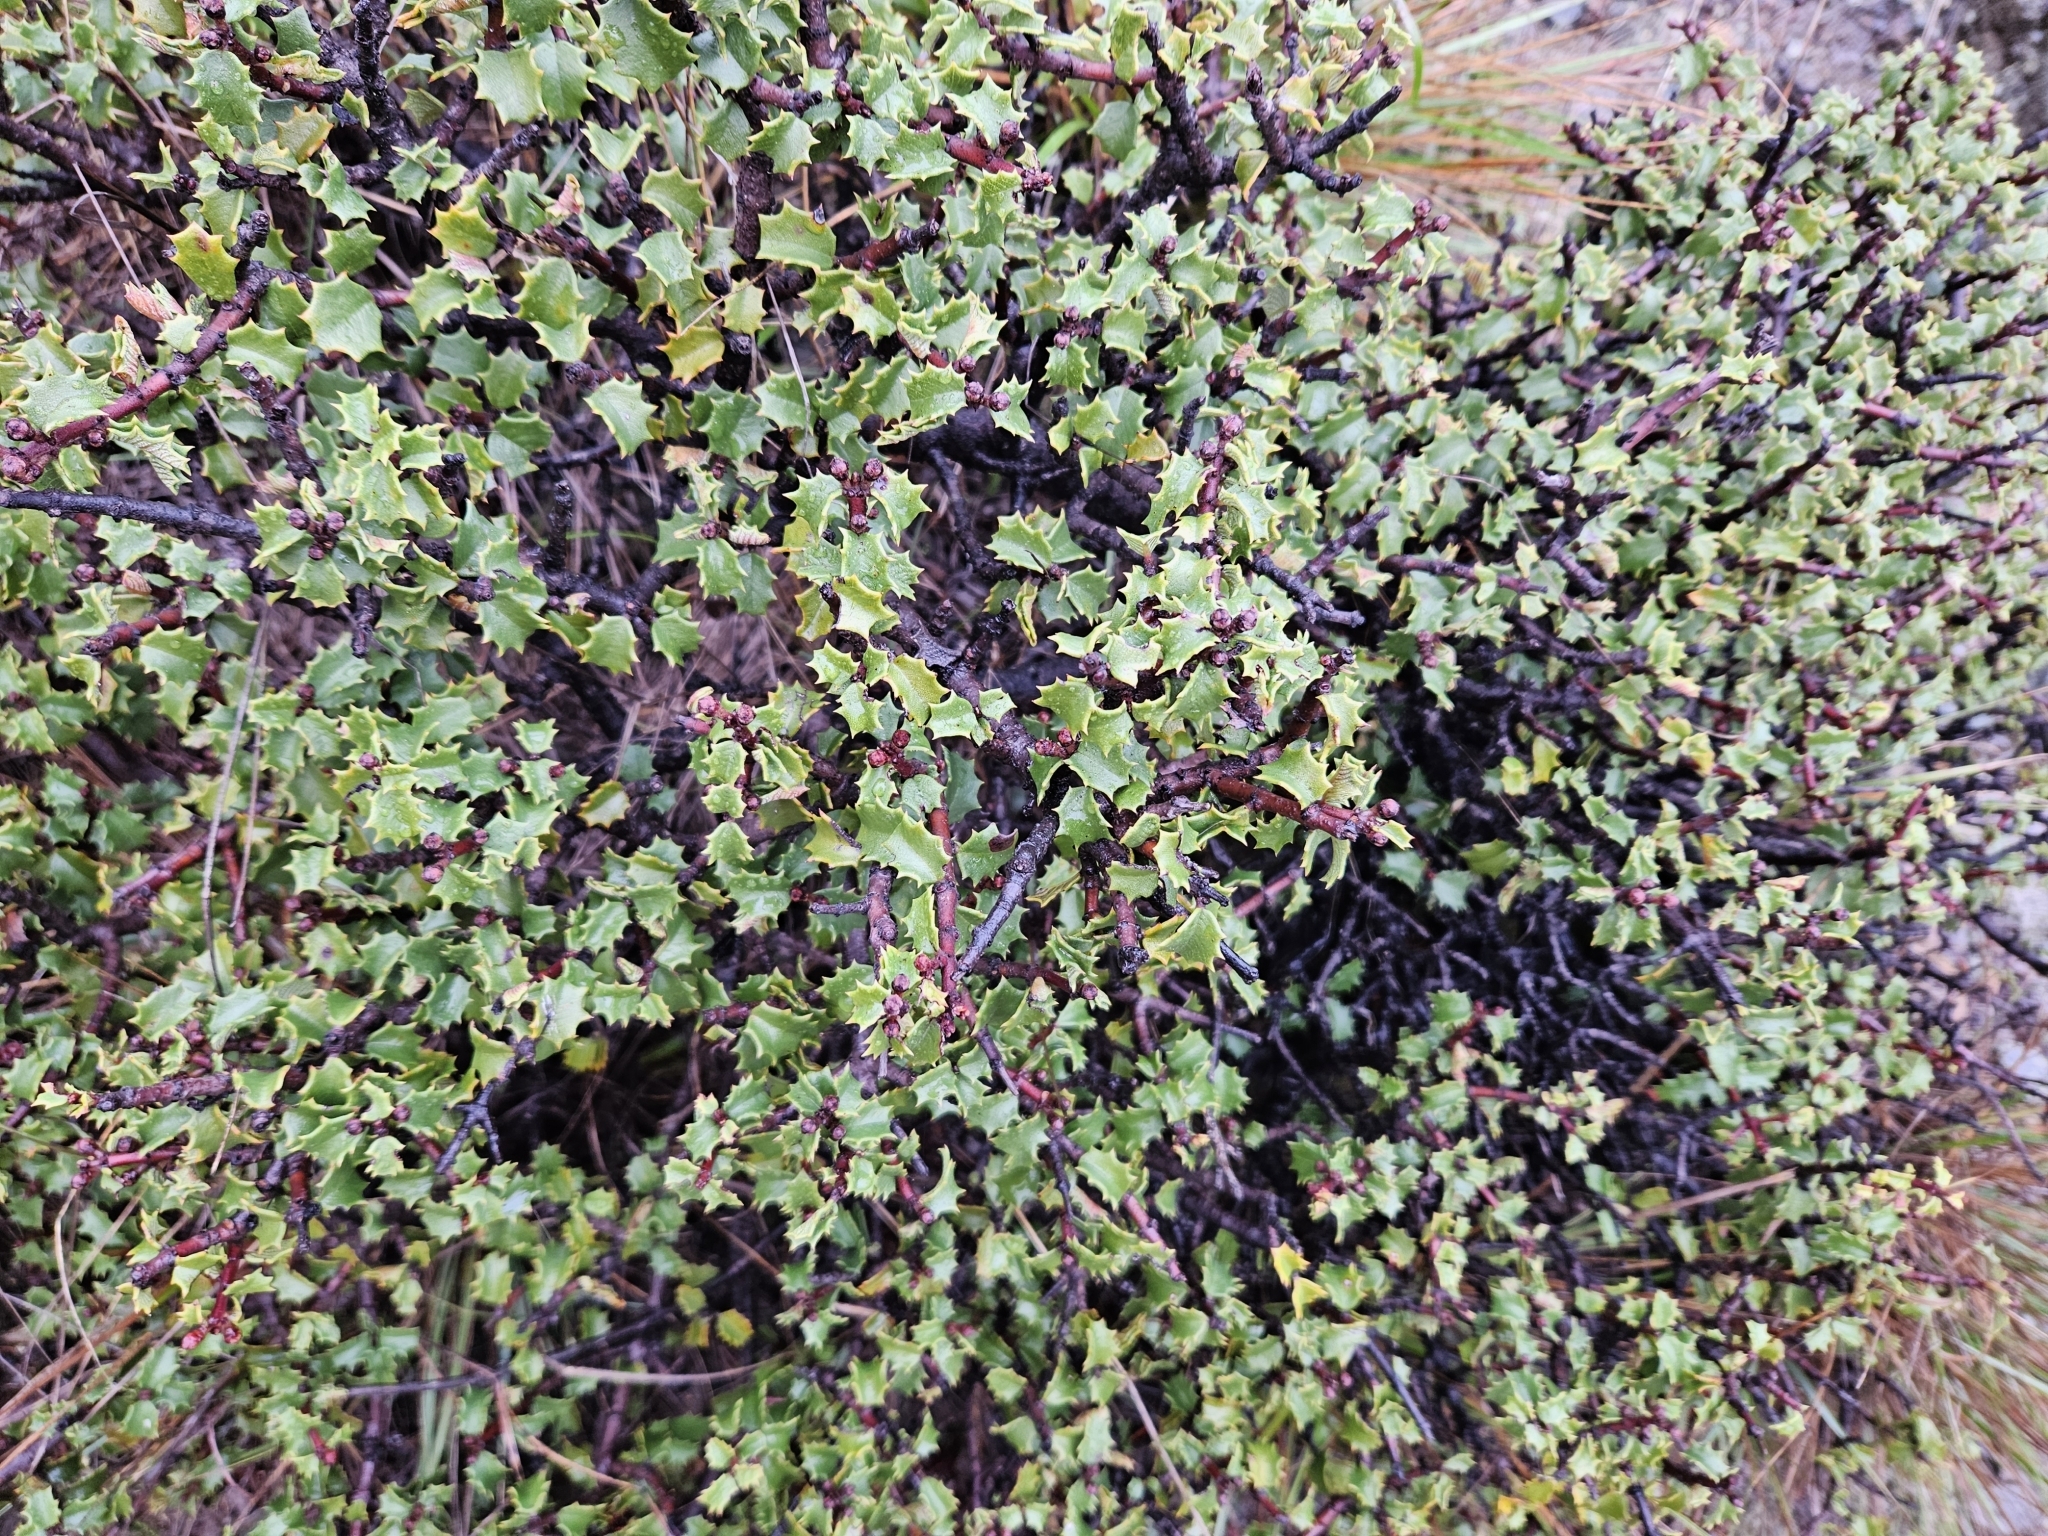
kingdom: Plantae
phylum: Tracheophyta
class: Magnoliopsida
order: Rosales
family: Rhamnaceae
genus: Ceanothus
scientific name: Ceanothus jepsonii
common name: Muskbrush
